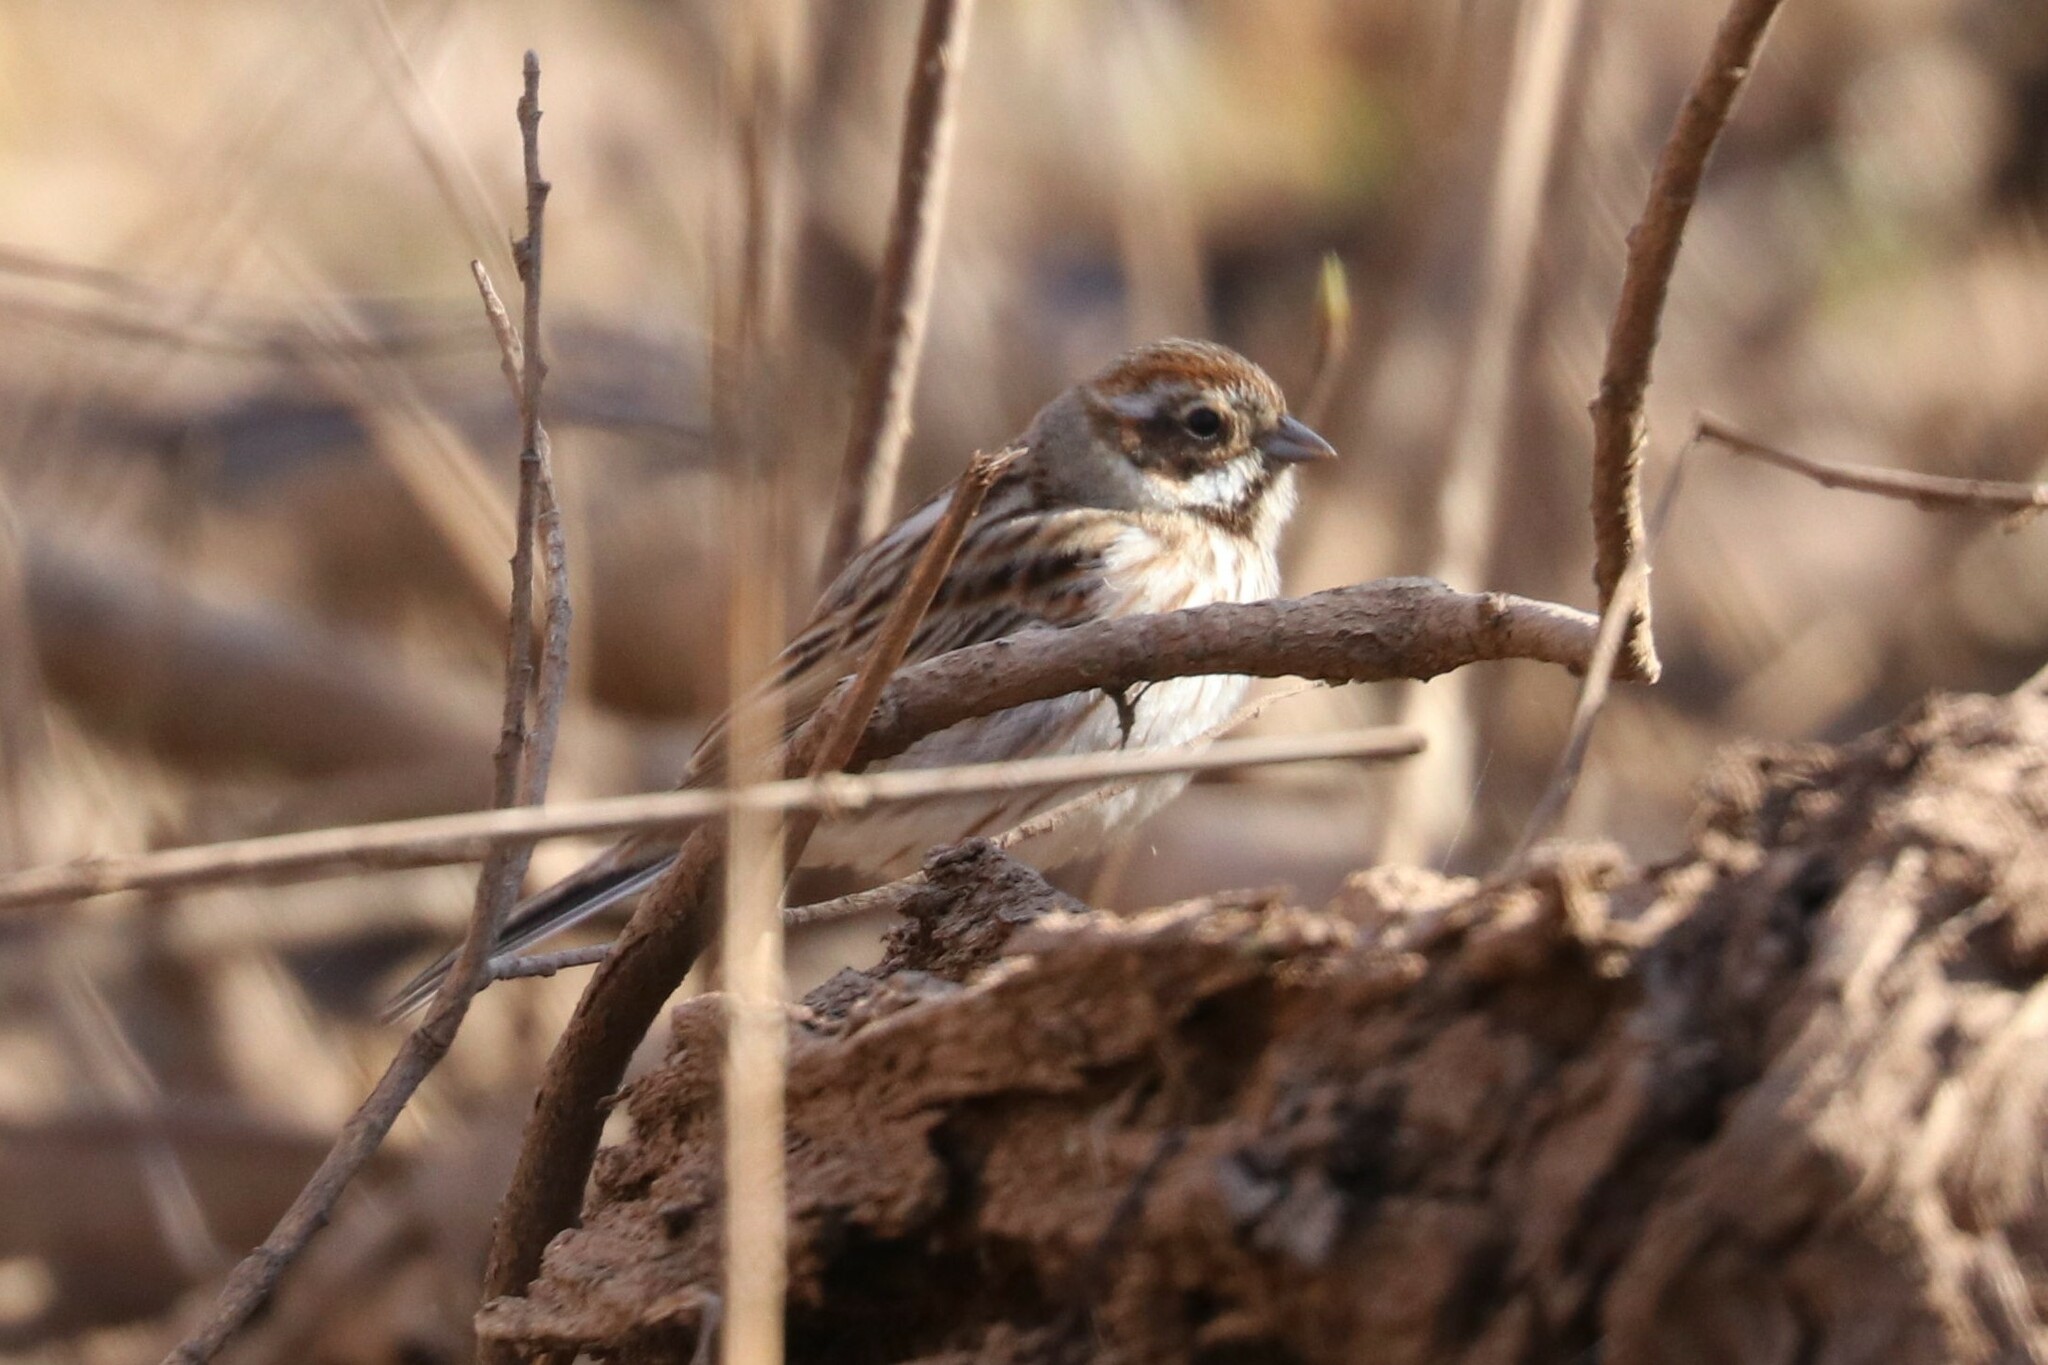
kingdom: Animalia
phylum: Chordata
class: Aves
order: Passeriformes
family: Emberizidae
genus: Emberiza
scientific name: Emberiza schoeniclus
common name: Reed bunting
